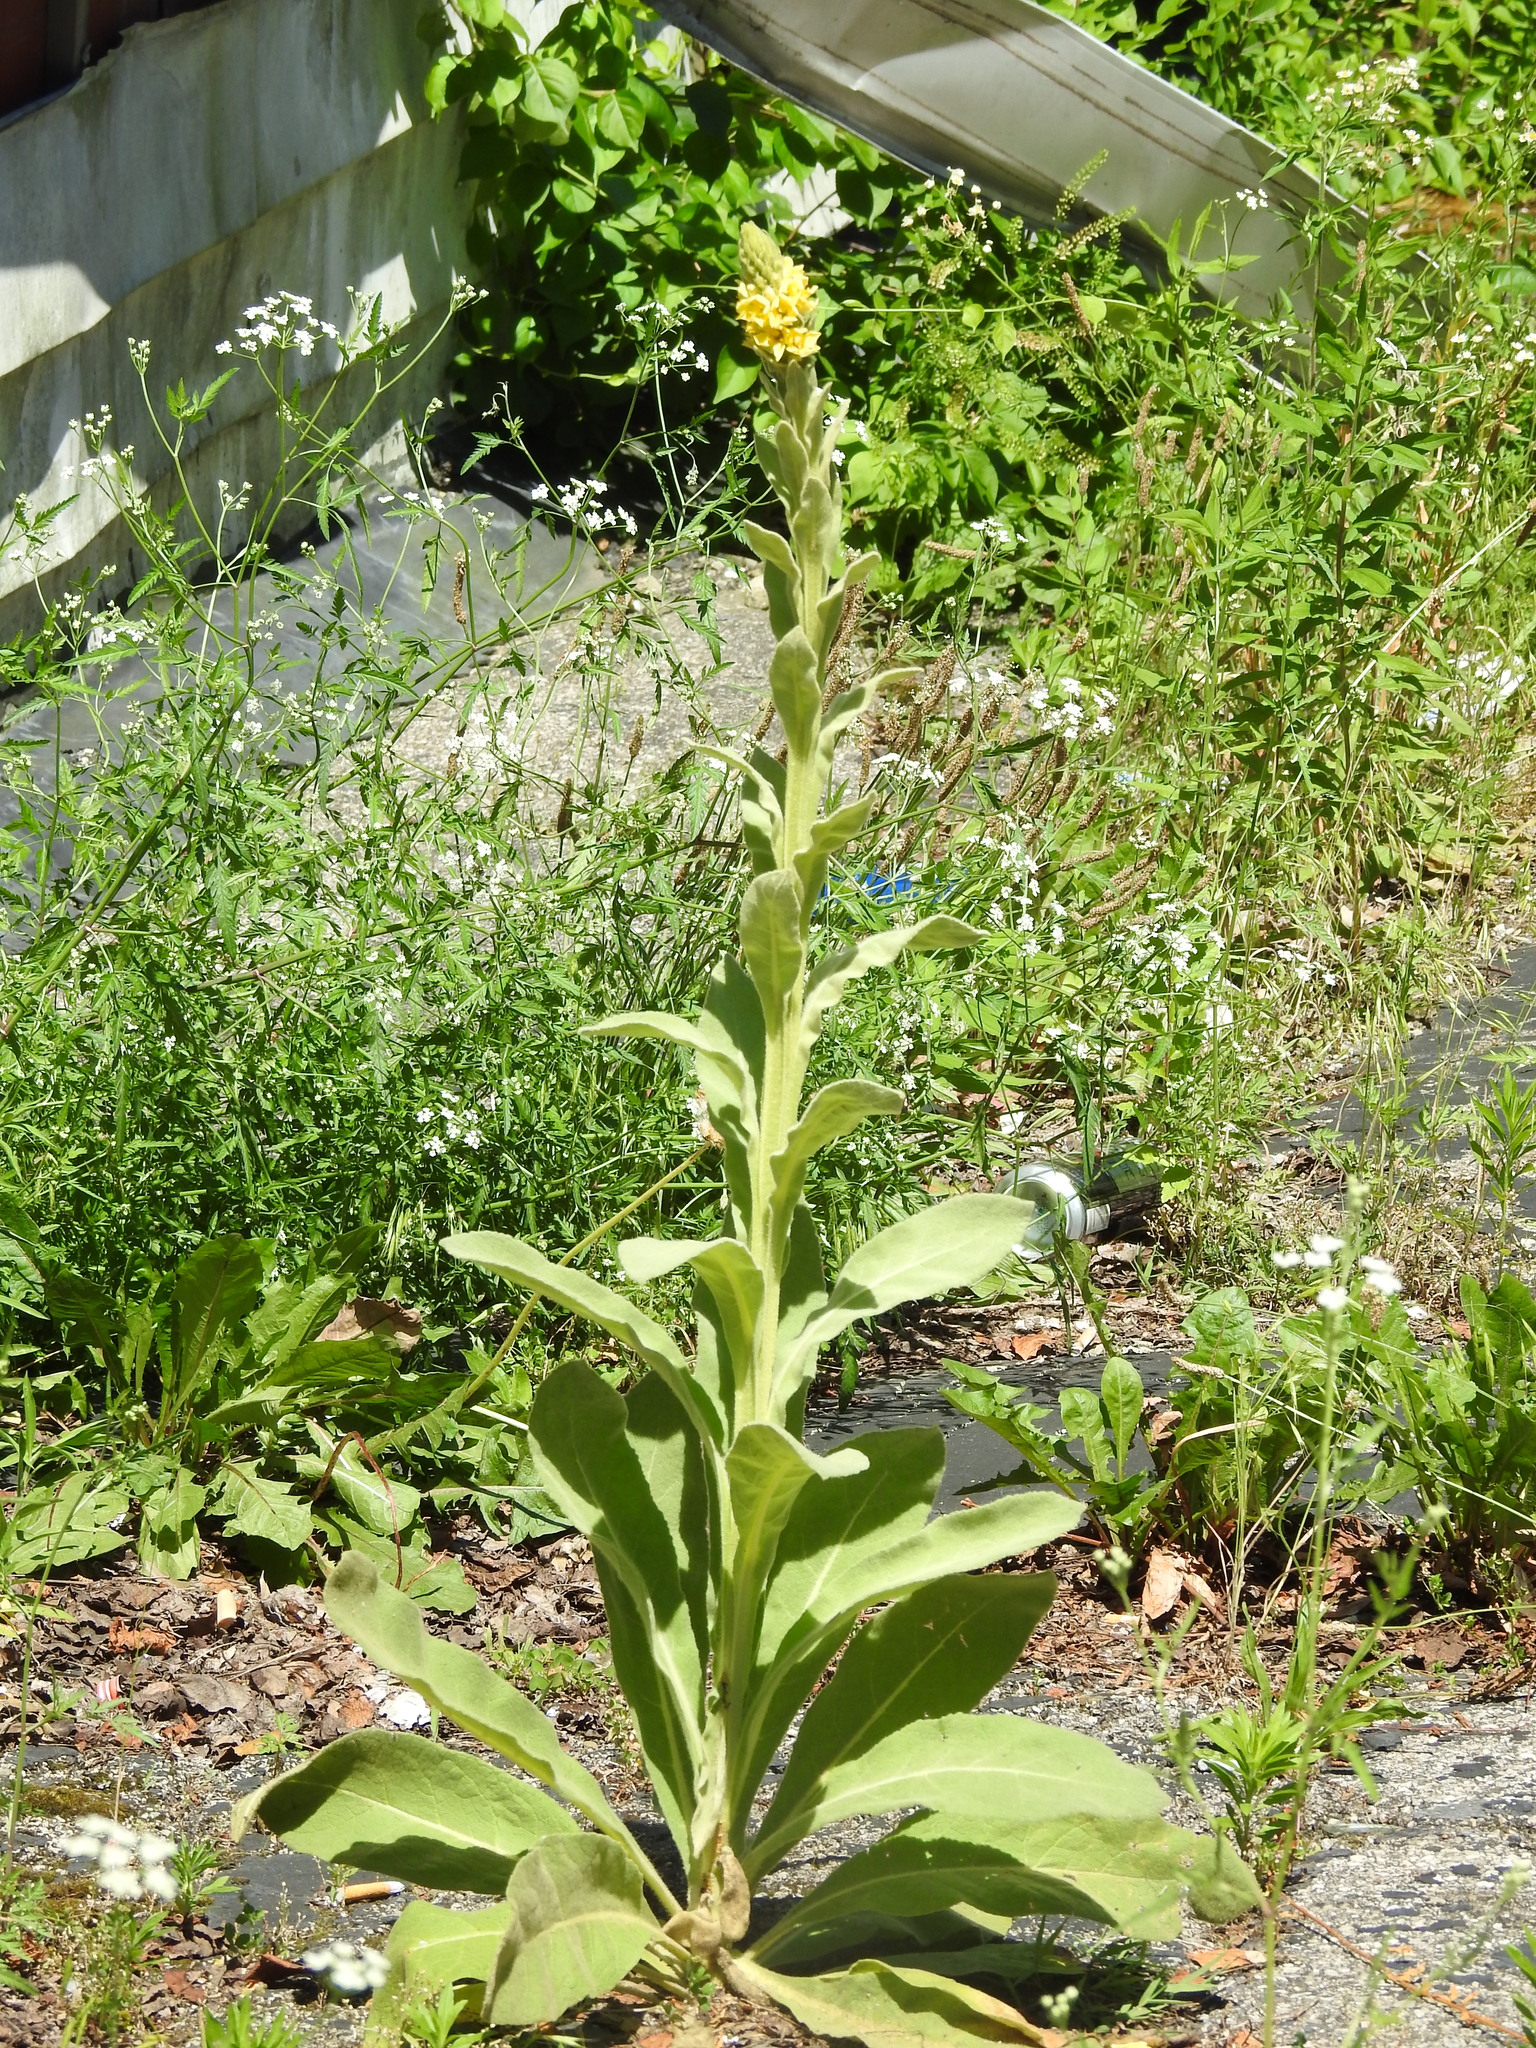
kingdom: Plantae
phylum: Tracheophyta
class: Magnoliopsida
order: Lamiales
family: Scrophulariaceae
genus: Verbascum
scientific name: Verbascum thapsus
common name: Common mullein
